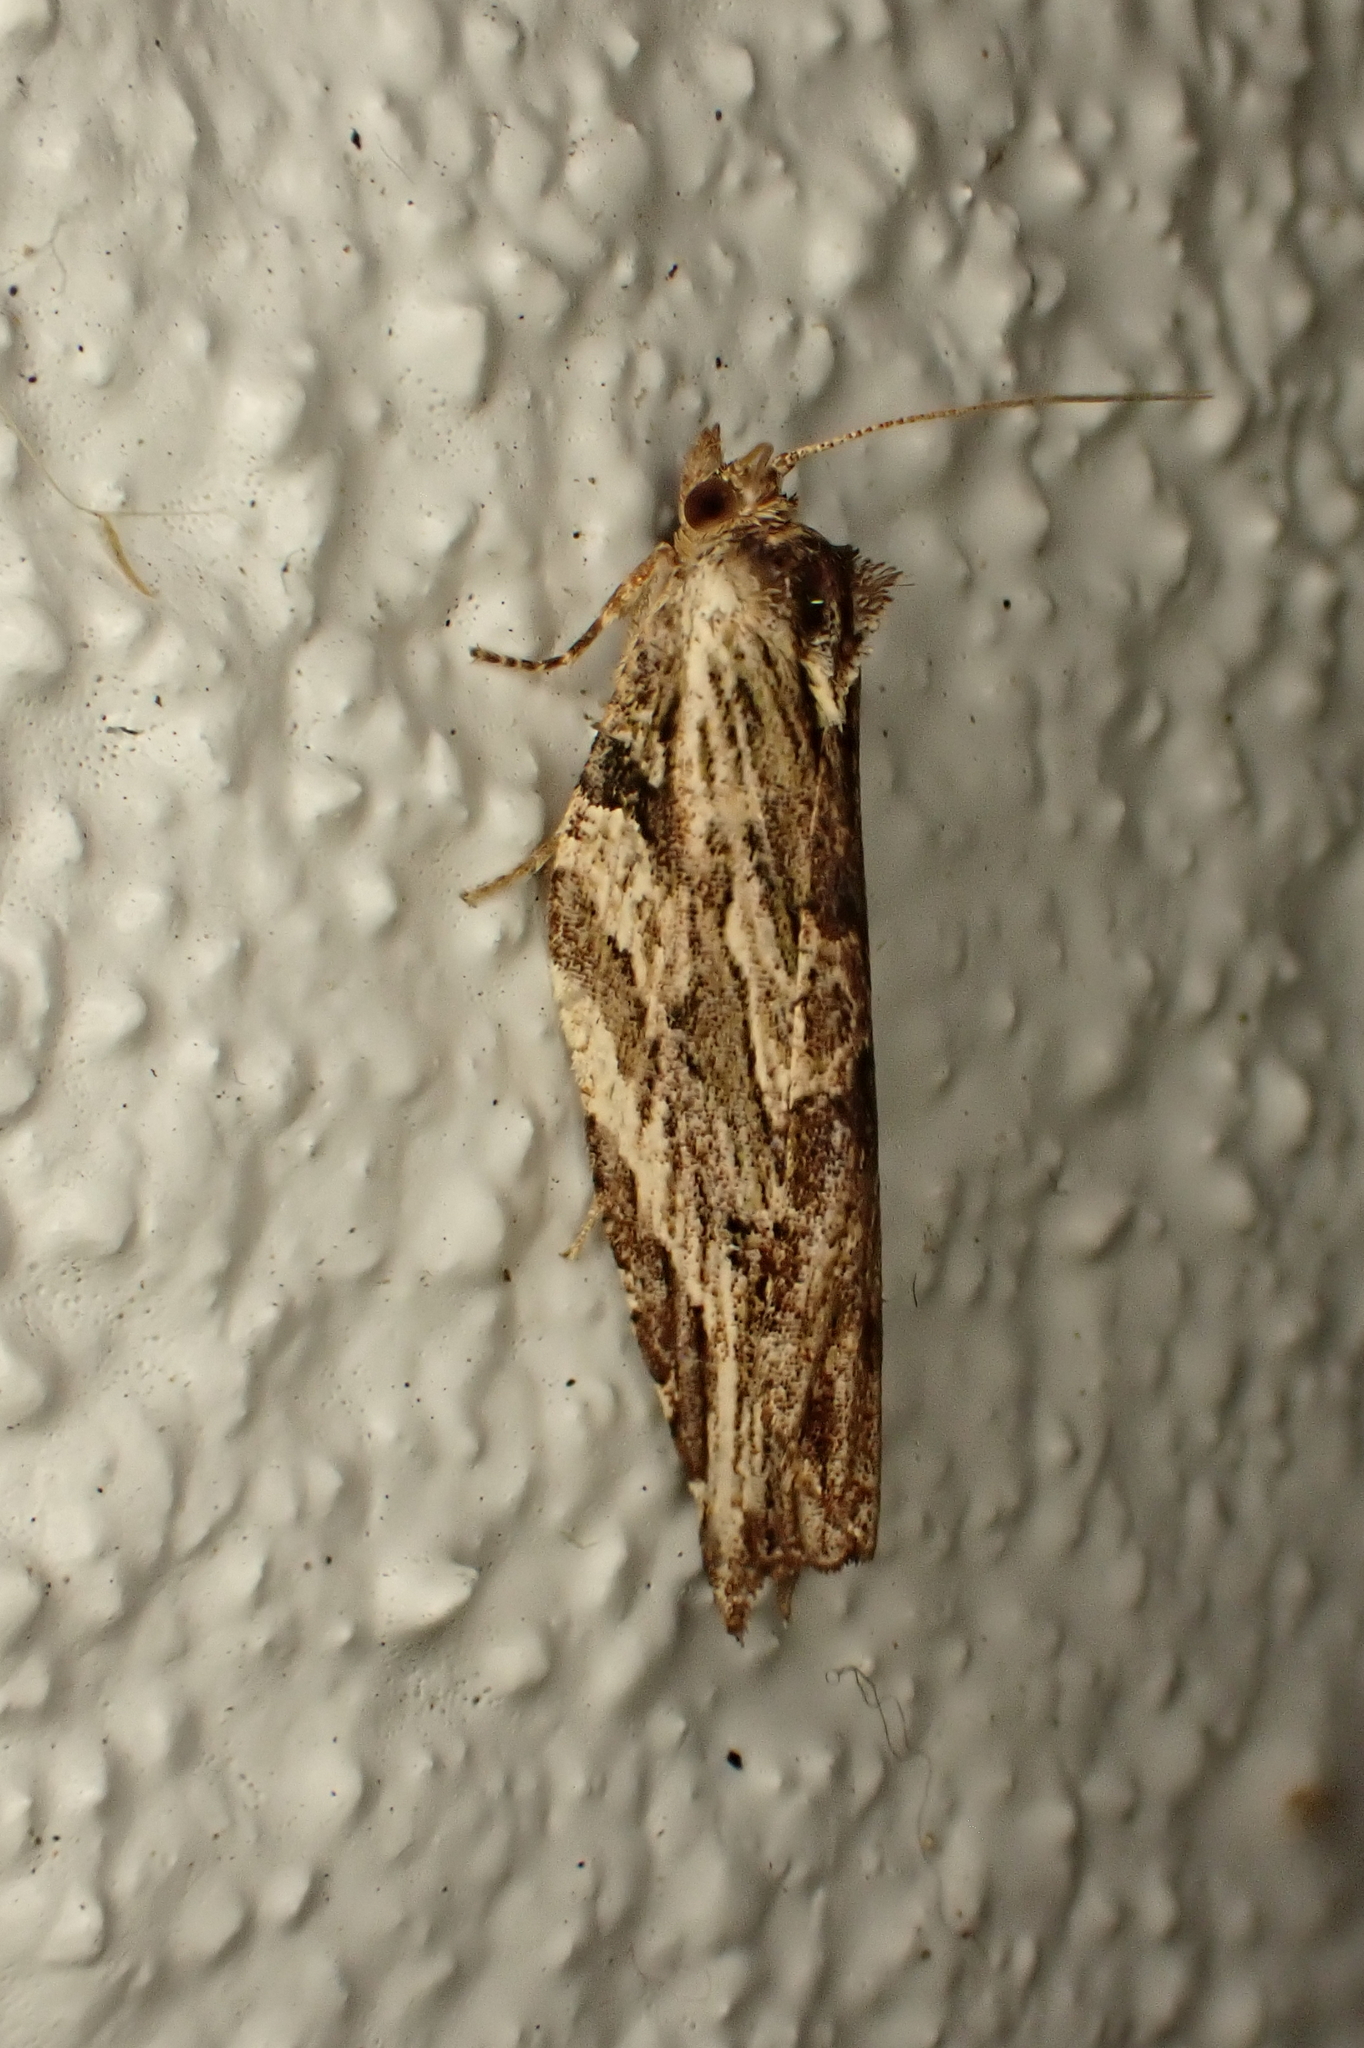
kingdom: Animalia
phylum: Arthropoda
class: Insecta
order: Lepidoptera
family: Tortricidae
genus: Epalxiphora
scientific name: Epalxiphora axenana
